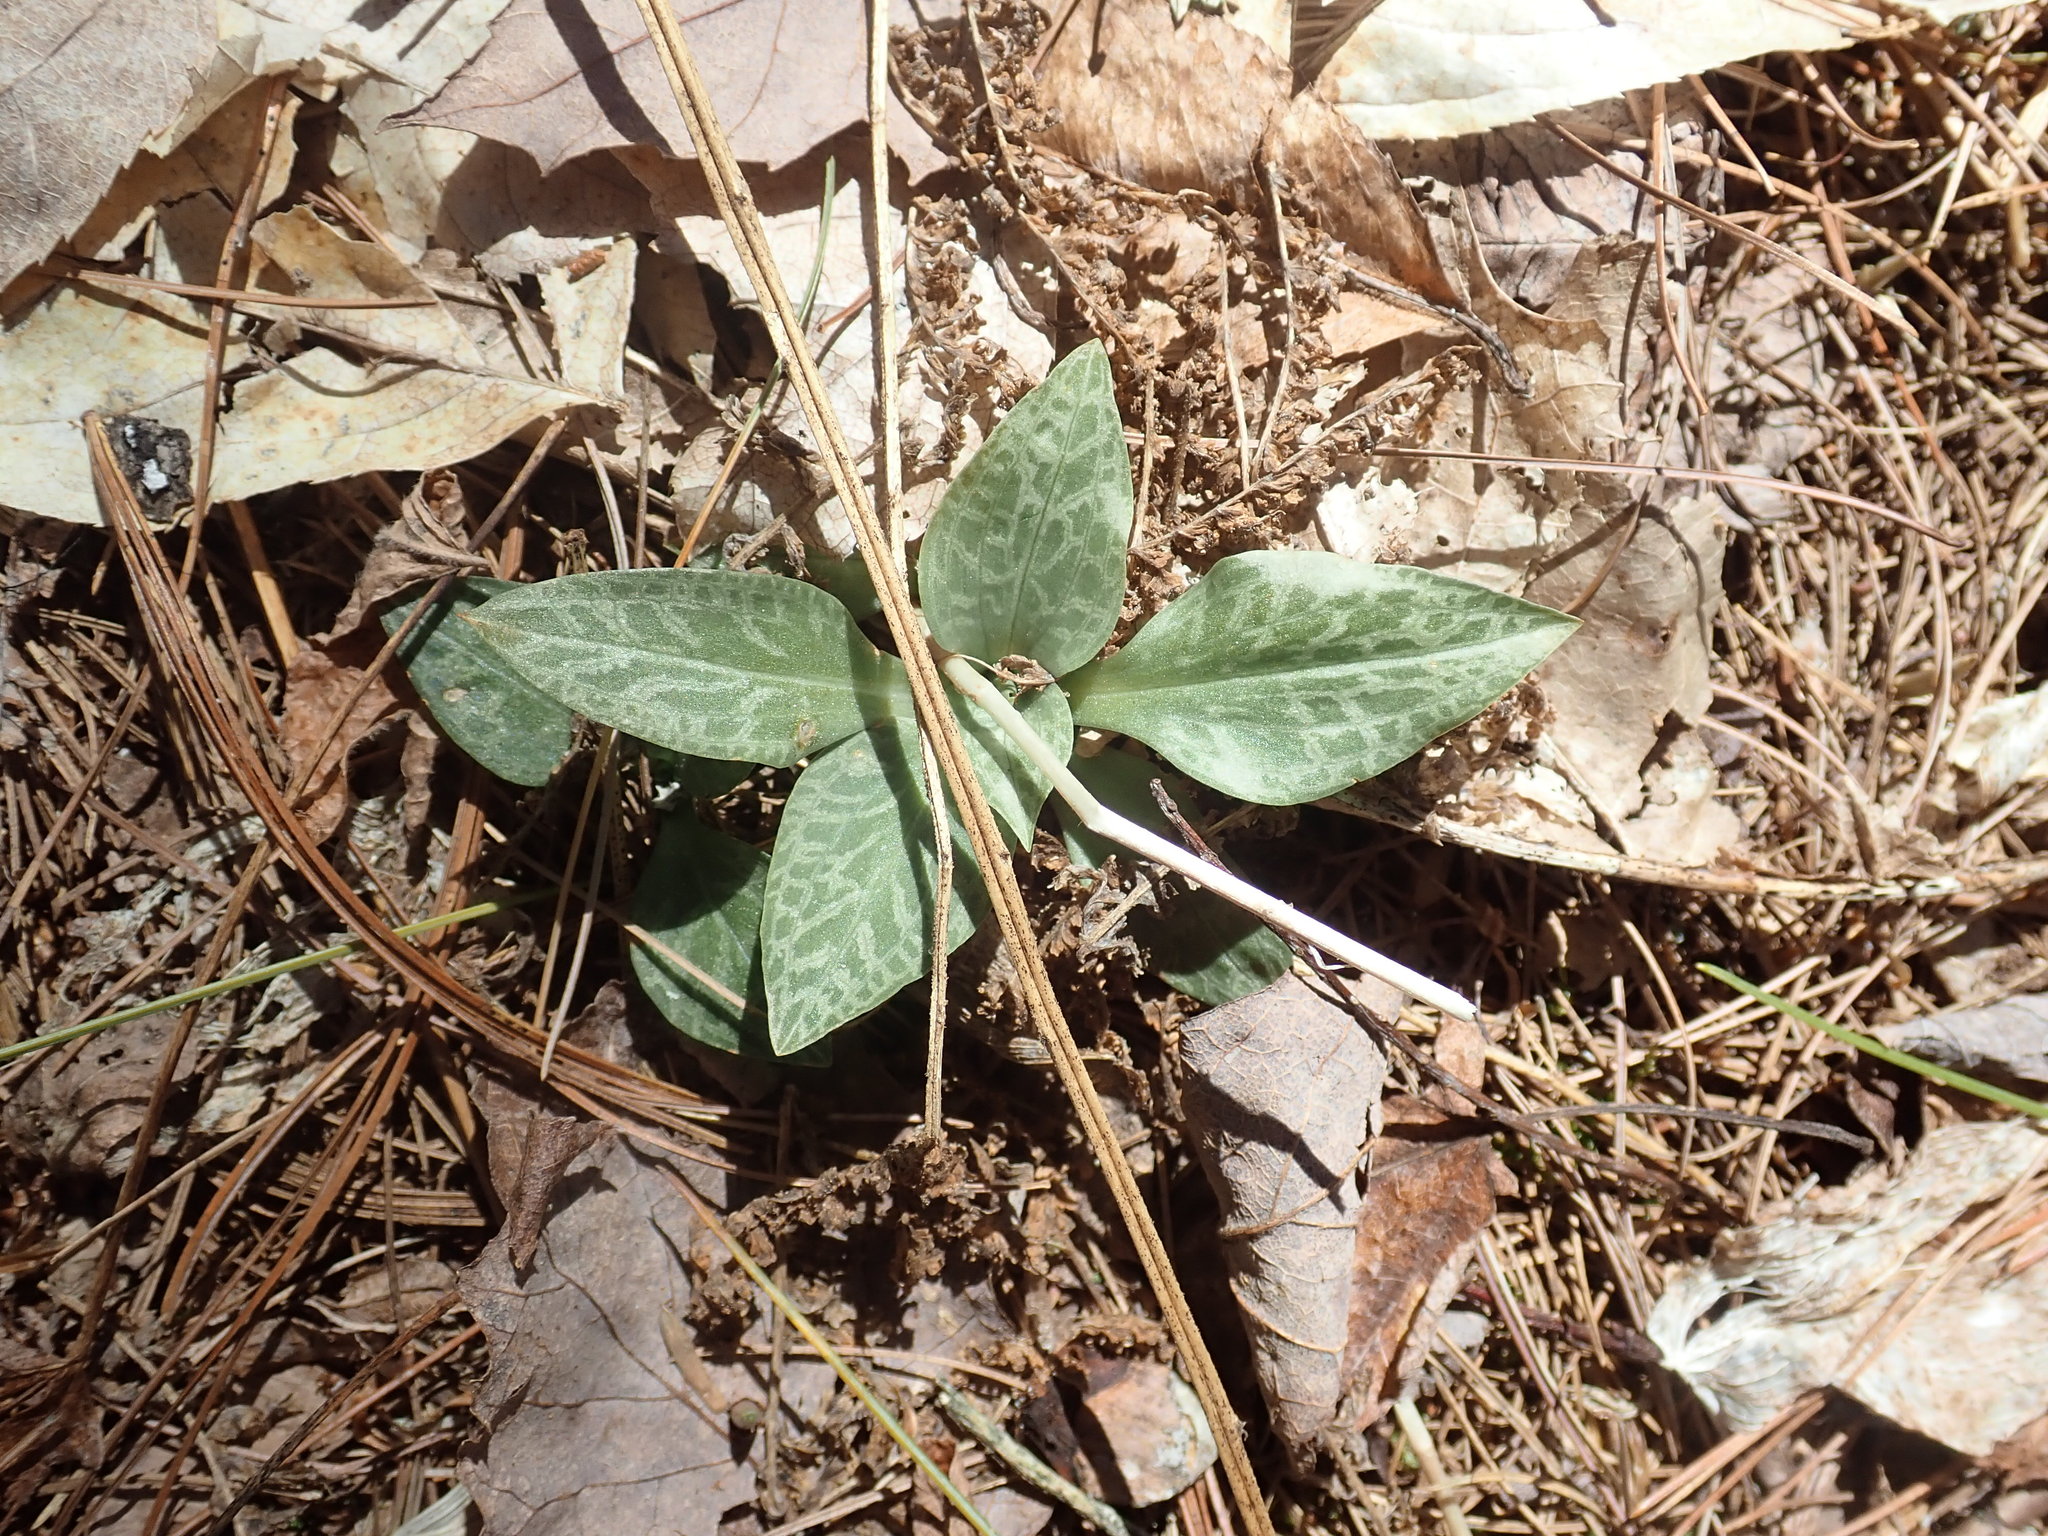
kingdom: Plantae
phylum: Tracheophyta
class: Liliopsida
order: Asparagales
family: Orchidaceae
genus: Goodyera
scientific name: Goodyera tesselata
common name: Checkered rattlesnake-plantain
